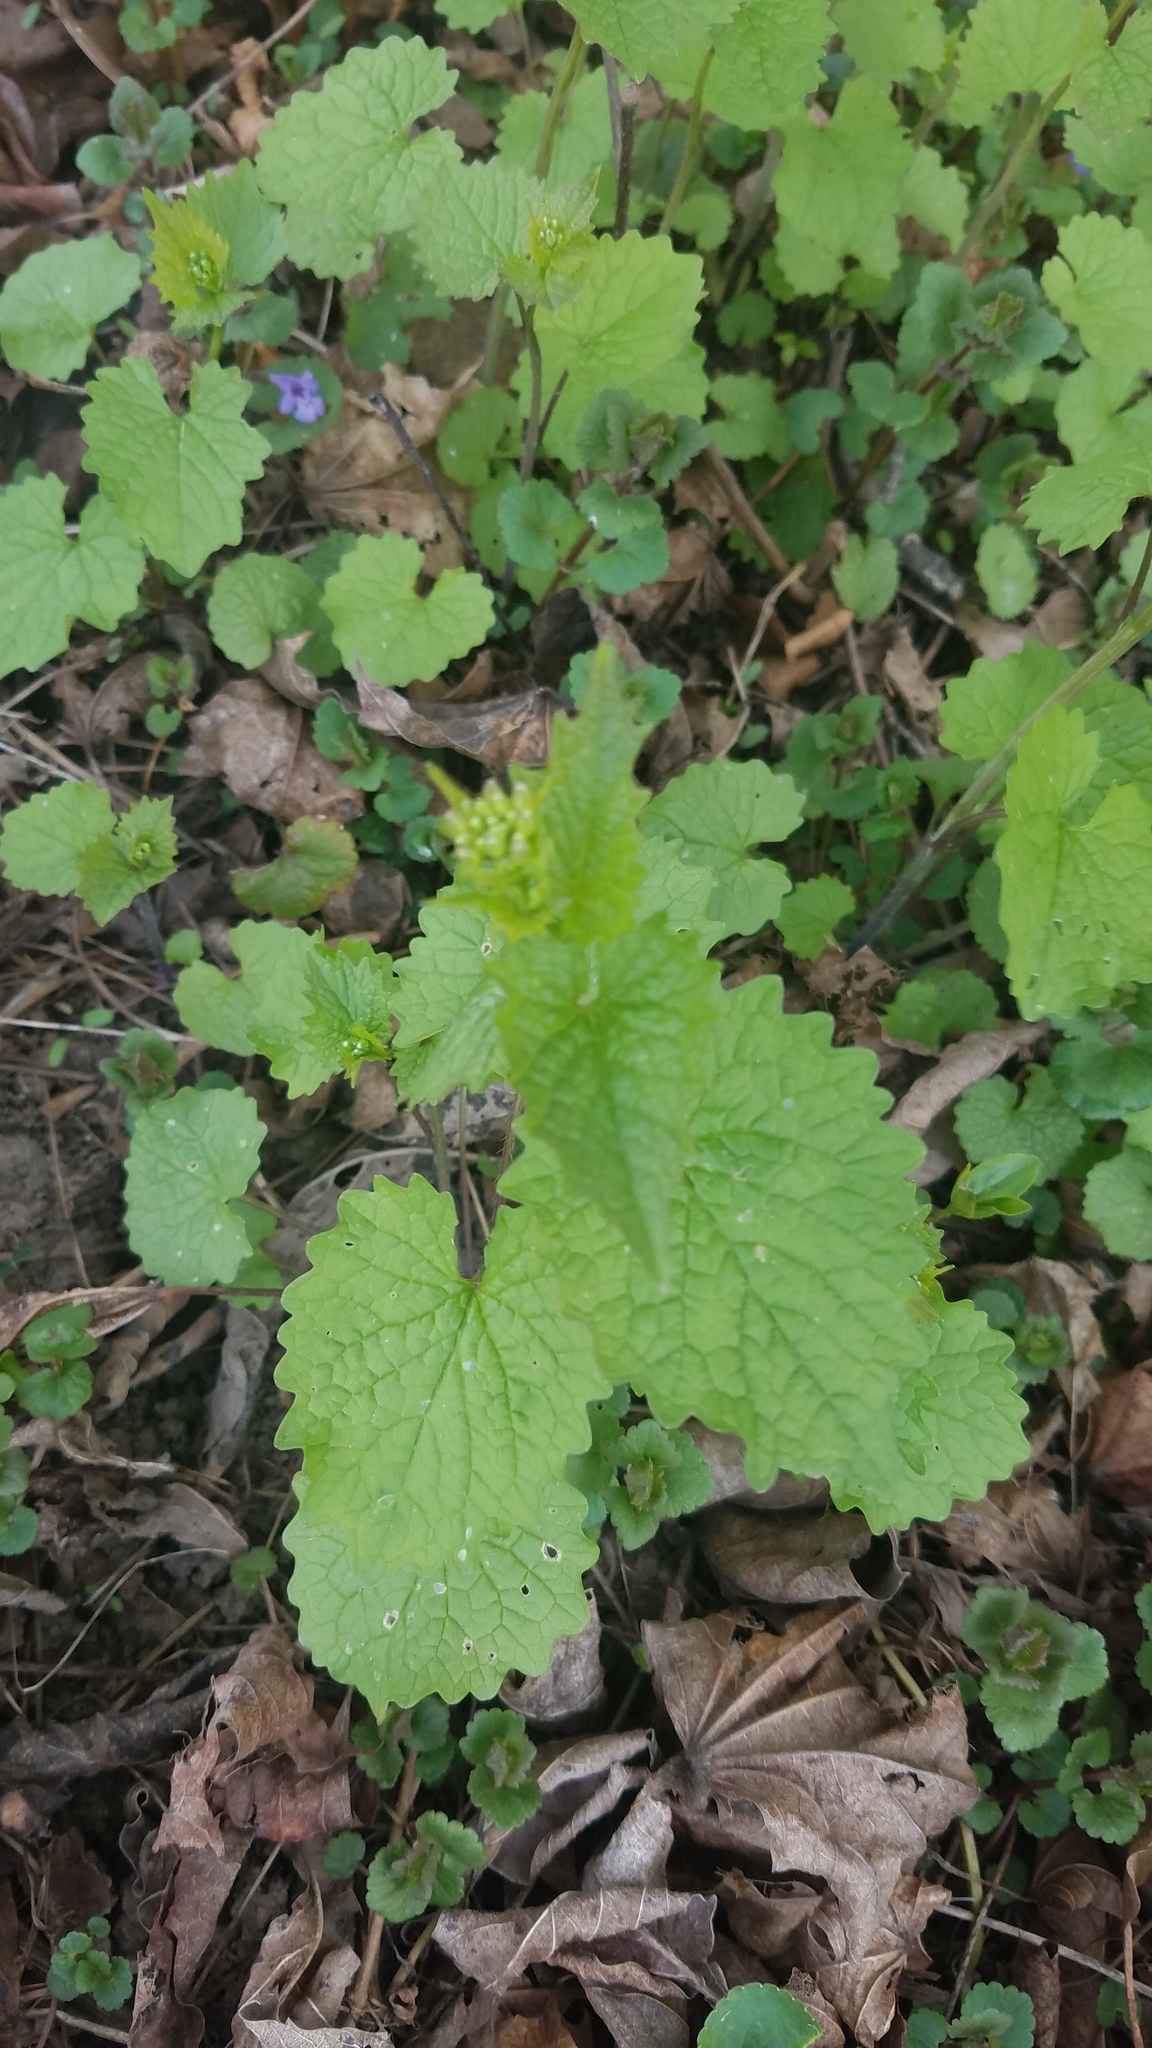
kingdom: Plantae
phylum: Tracheophyta
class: Magnoliopsida
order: Brassicales
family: Brassicaceae
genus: Alliaria
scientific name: Alliaria petiolata
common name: Garlic mustard
